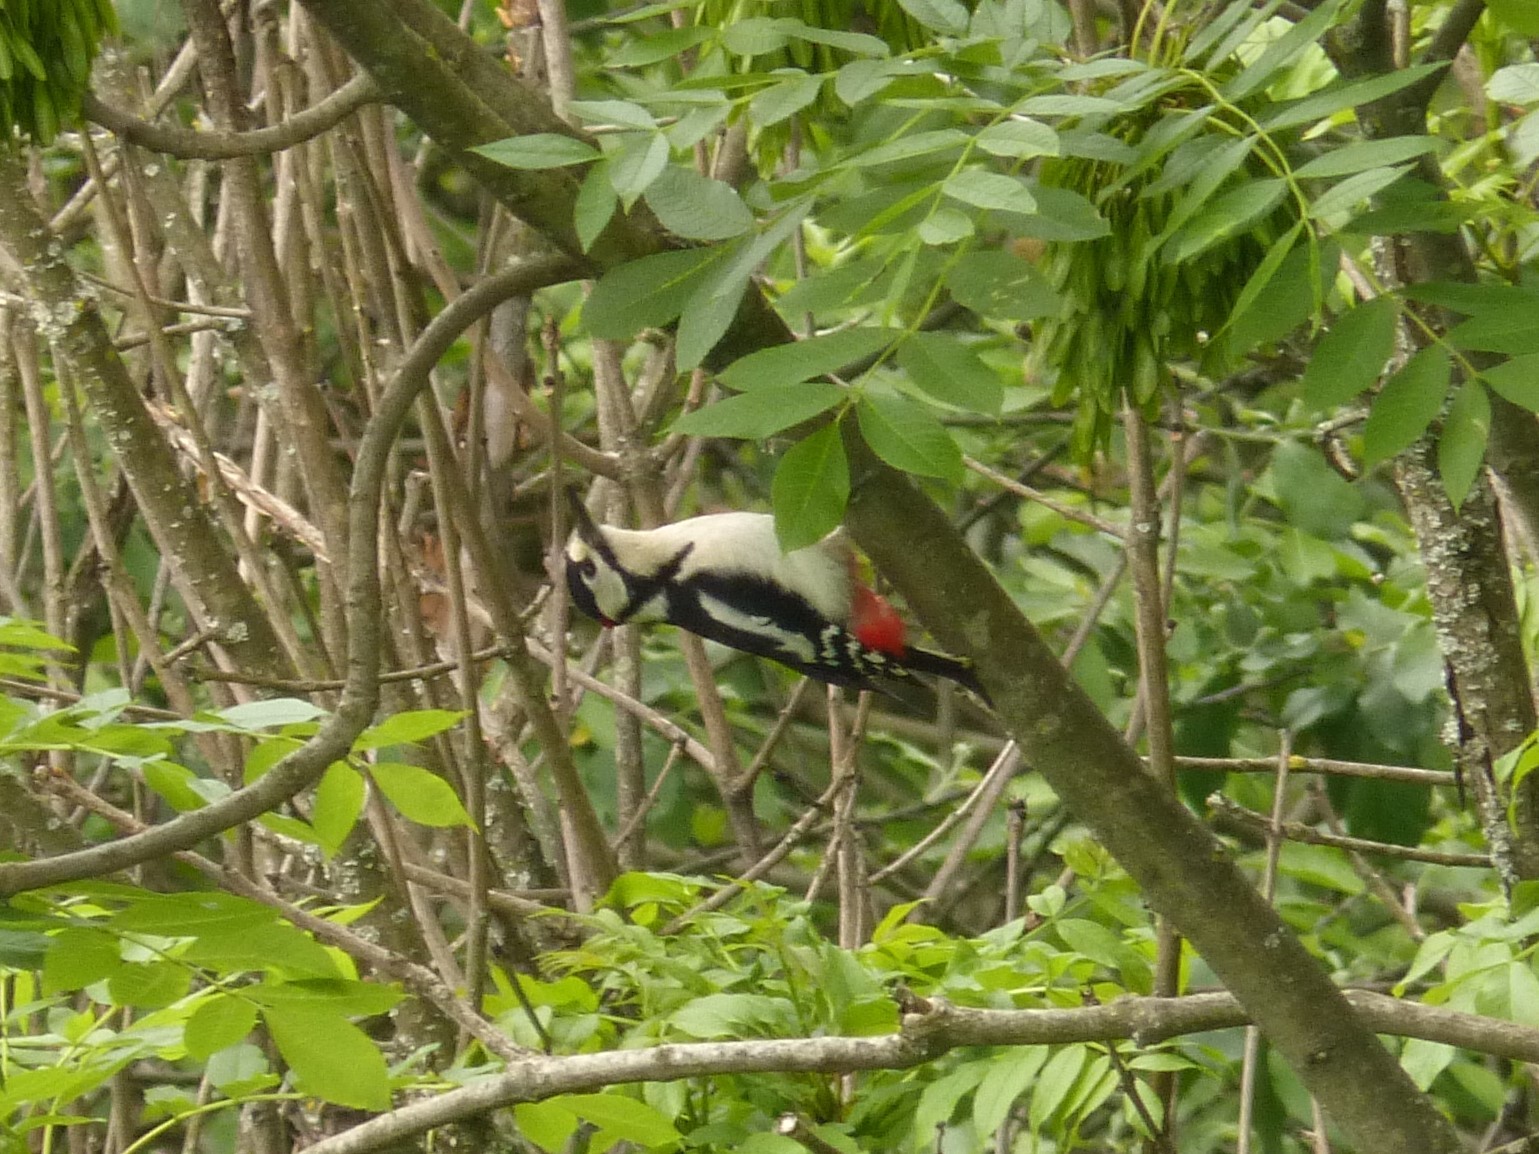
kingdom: Animalia
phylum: Chordata
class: Aves
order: Piciformes
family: Picidae
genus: Dendrocopos
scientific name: Dendrocopos major
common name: Great spotted woodpecker
